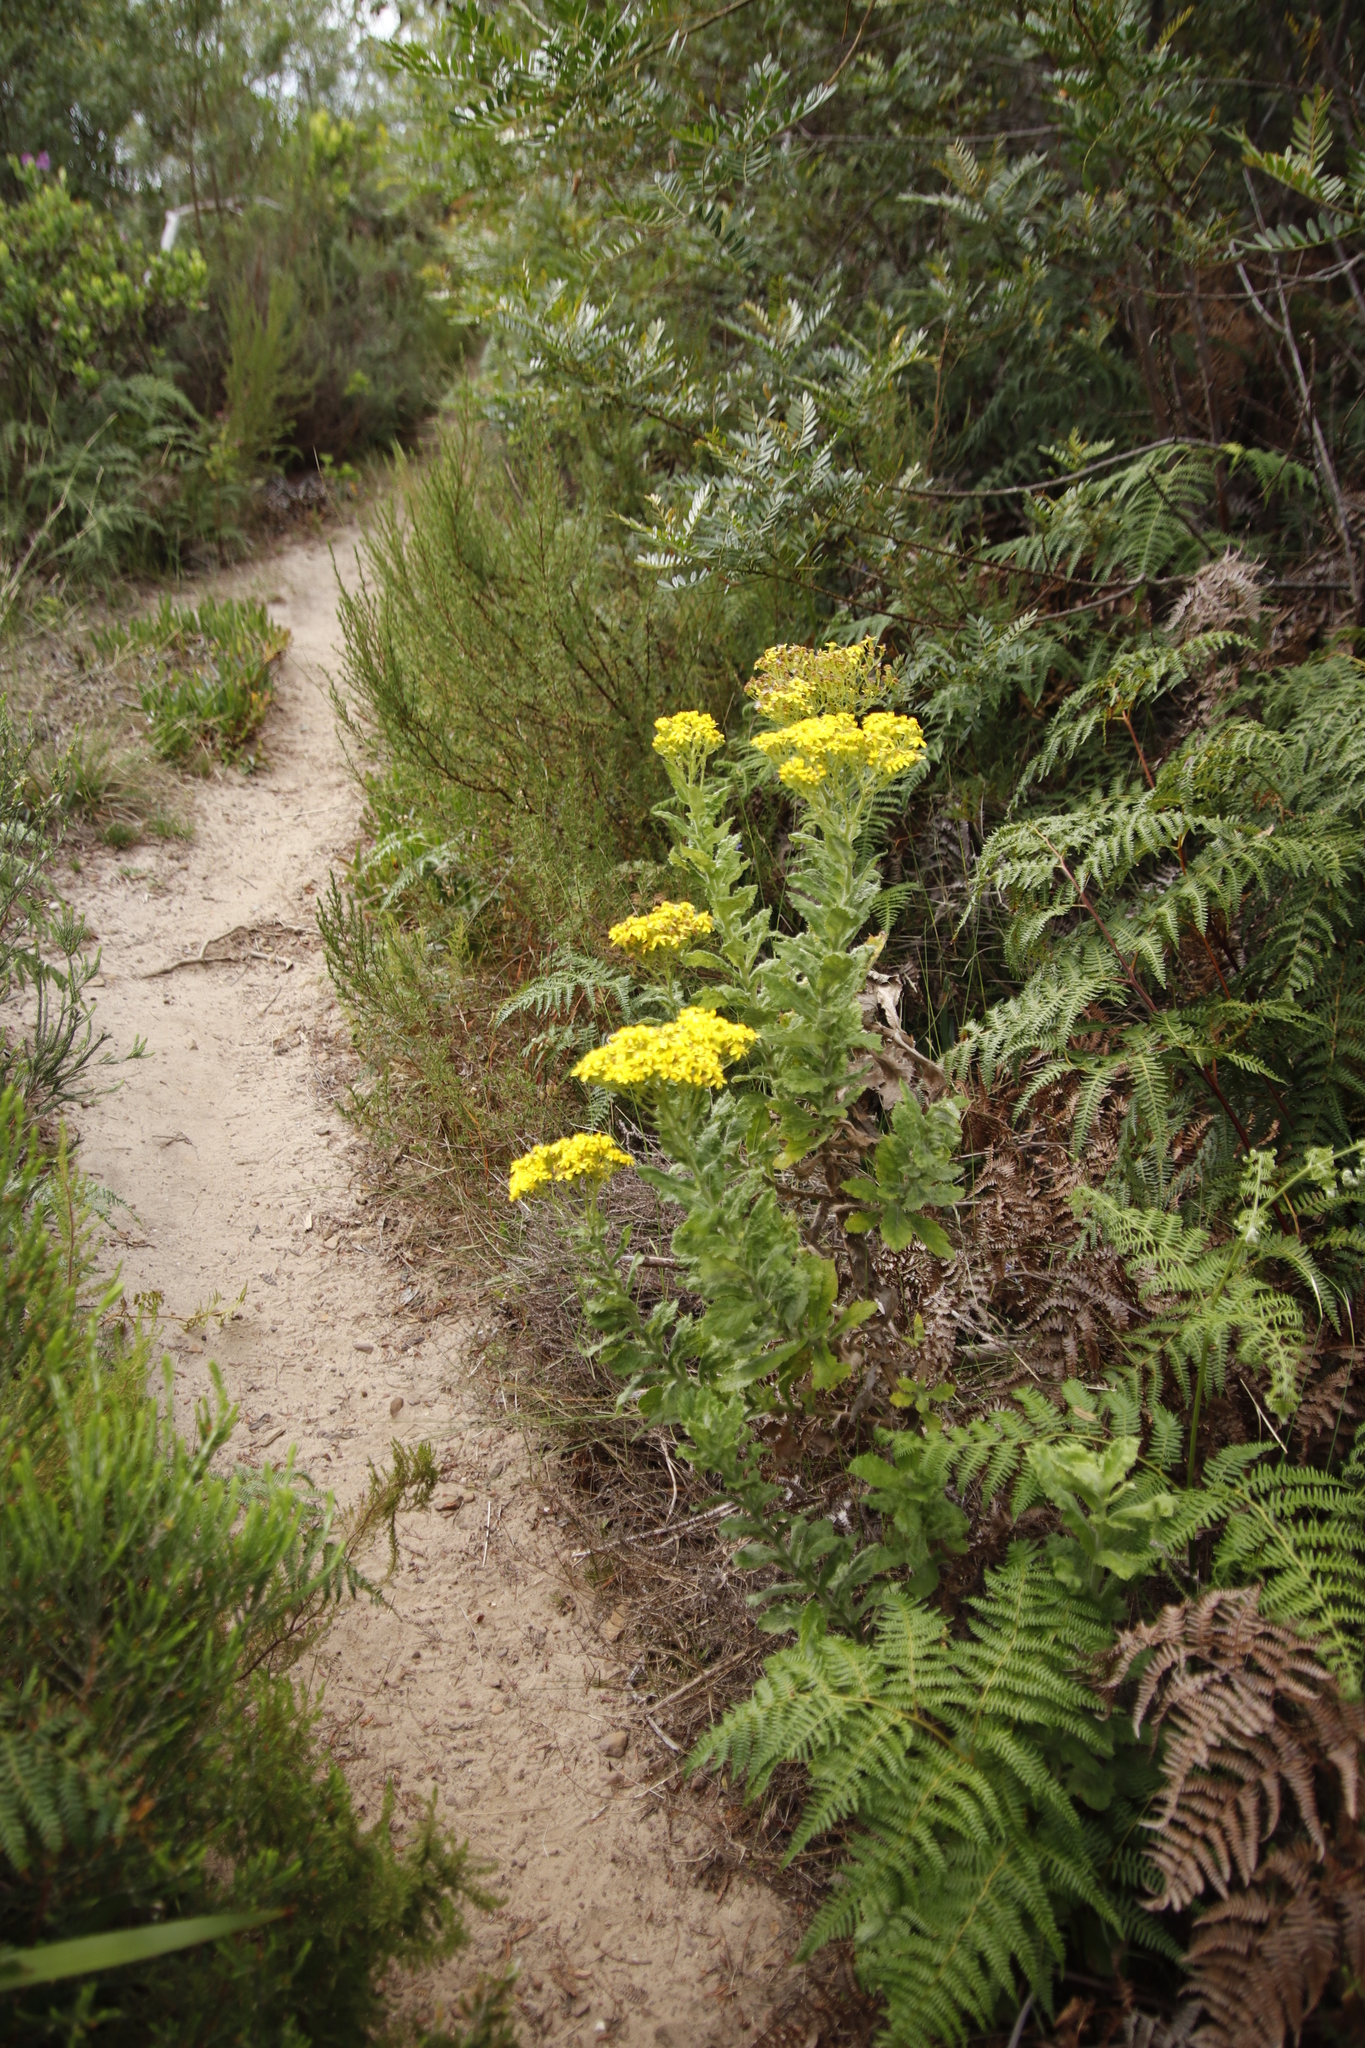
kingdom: Plantae
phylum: Tracheophyta
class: Magnoliopsida
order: Asterales
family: Asteraceae
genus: Senecio
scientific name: Senecio rigidus
